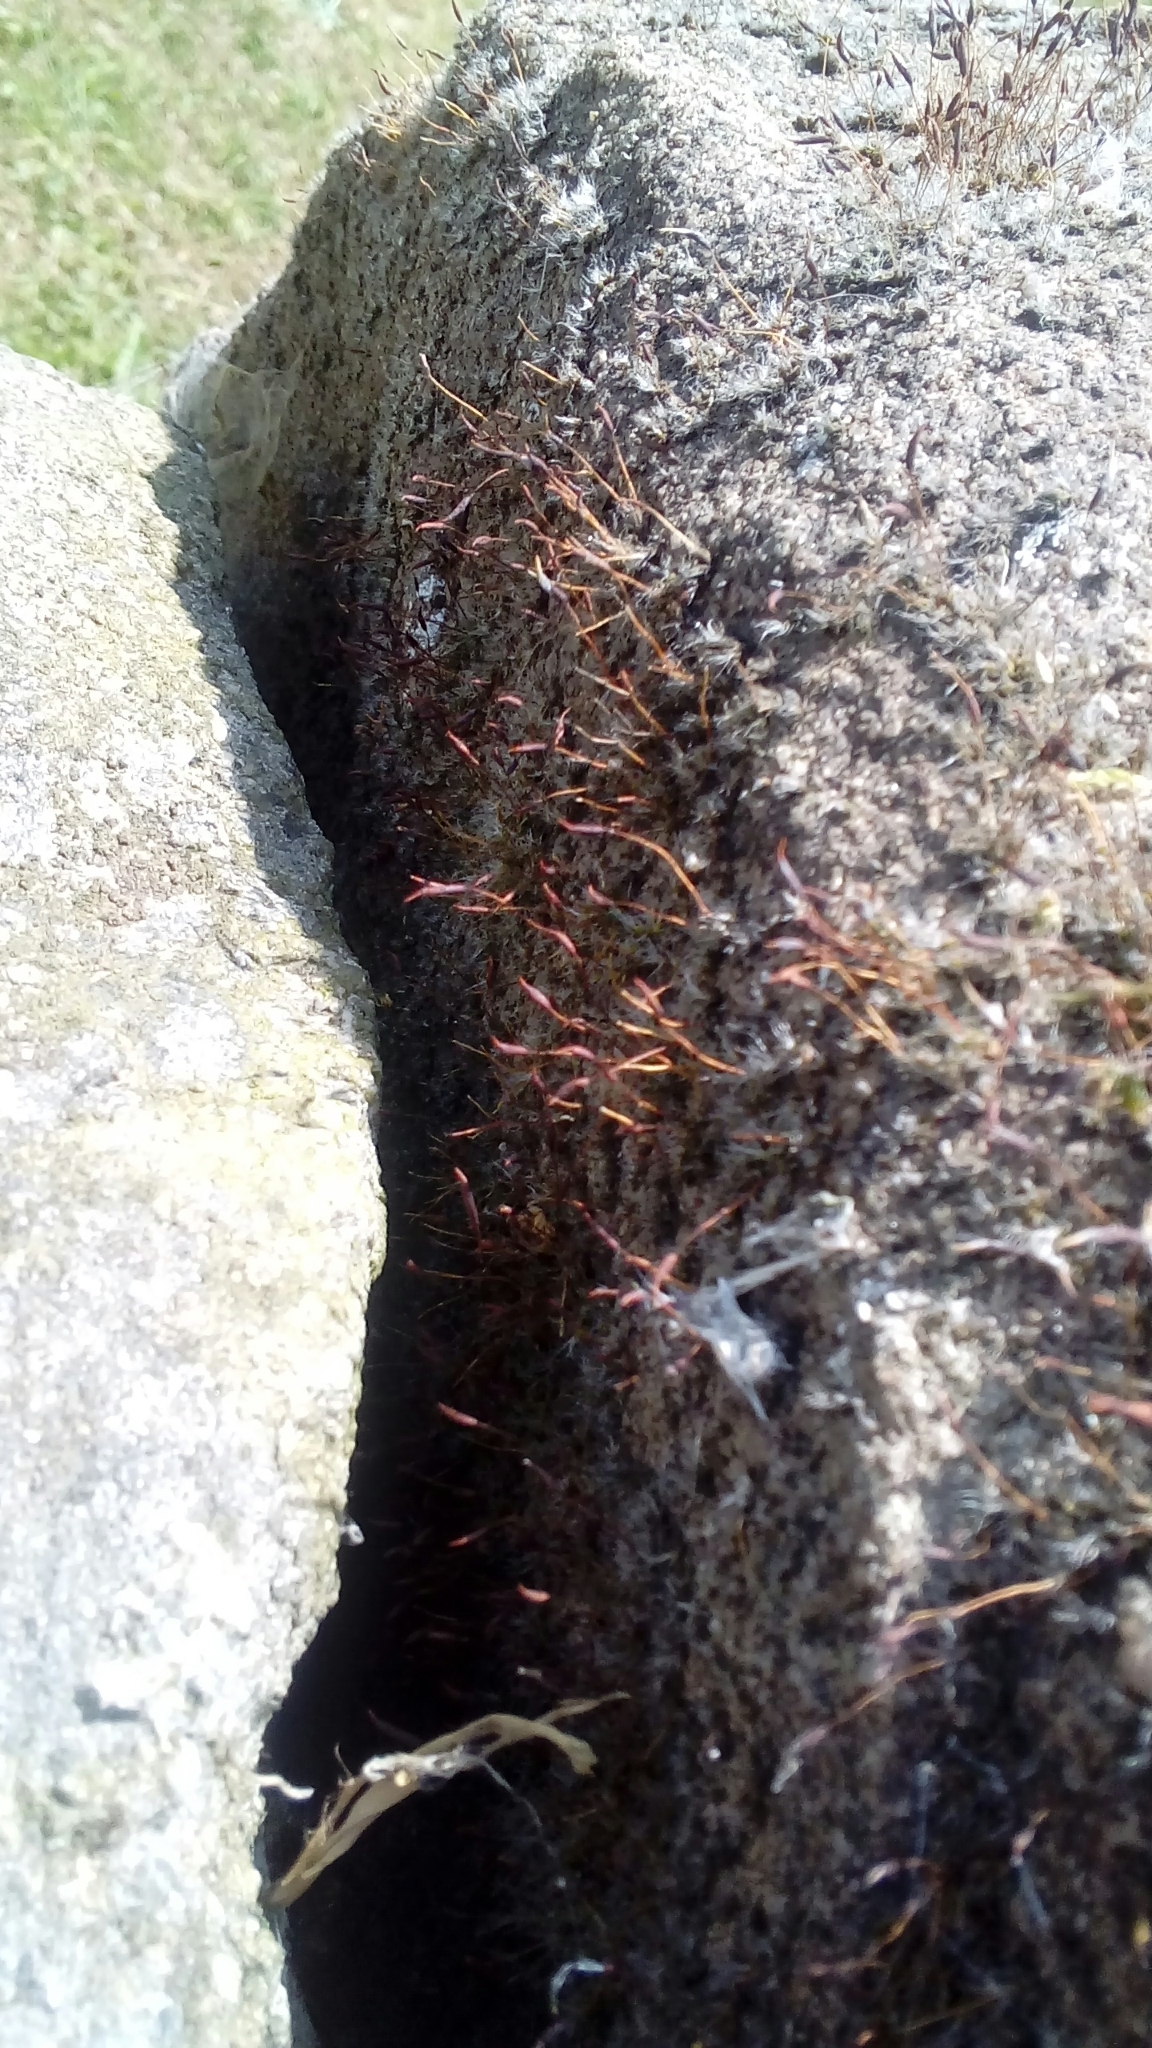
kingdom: Plantae
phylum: Bryophyta
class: Bryopsida
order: Pottiales
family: Pottiaceae
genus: Tortula
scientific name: Tortula muralis
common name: Wall screw-moss
